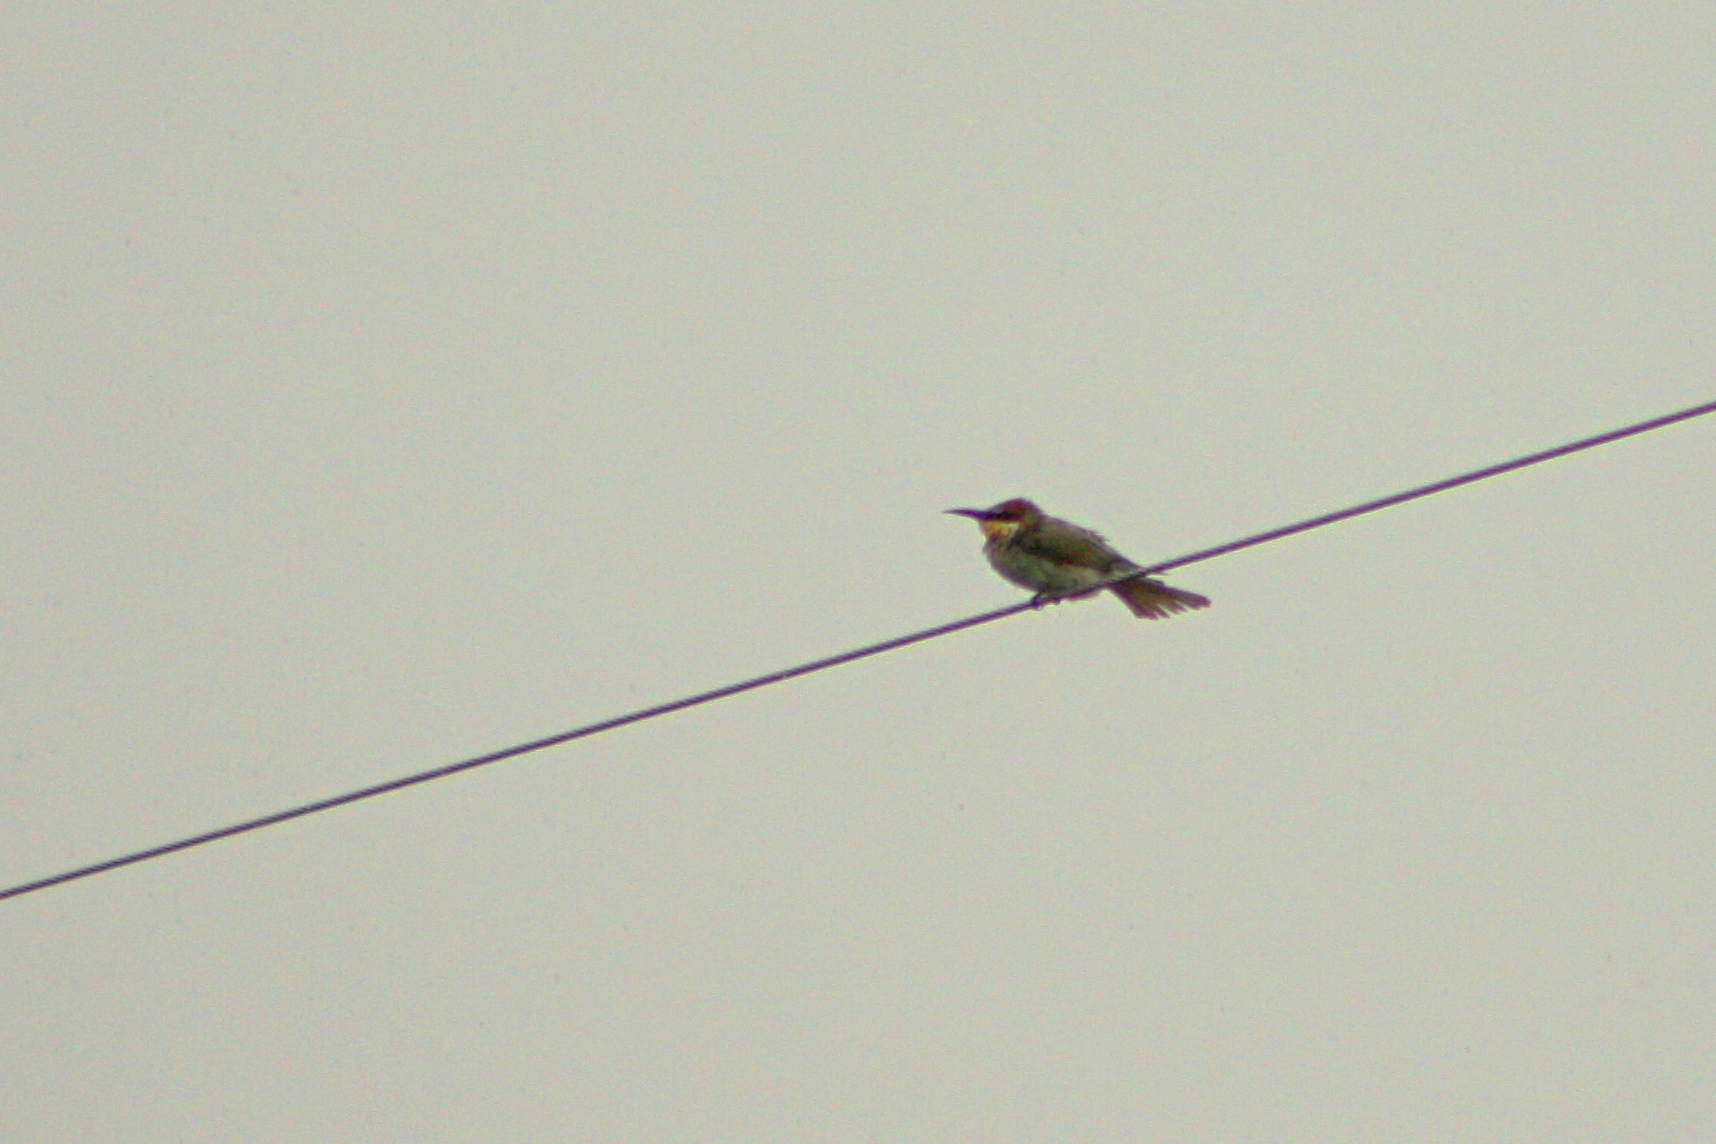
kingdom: Animalia
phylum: Chordata
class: Aves
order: Coraciiformes
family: Meropidae
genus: Merops
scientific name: Merops apiaster
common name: European bee-eater
